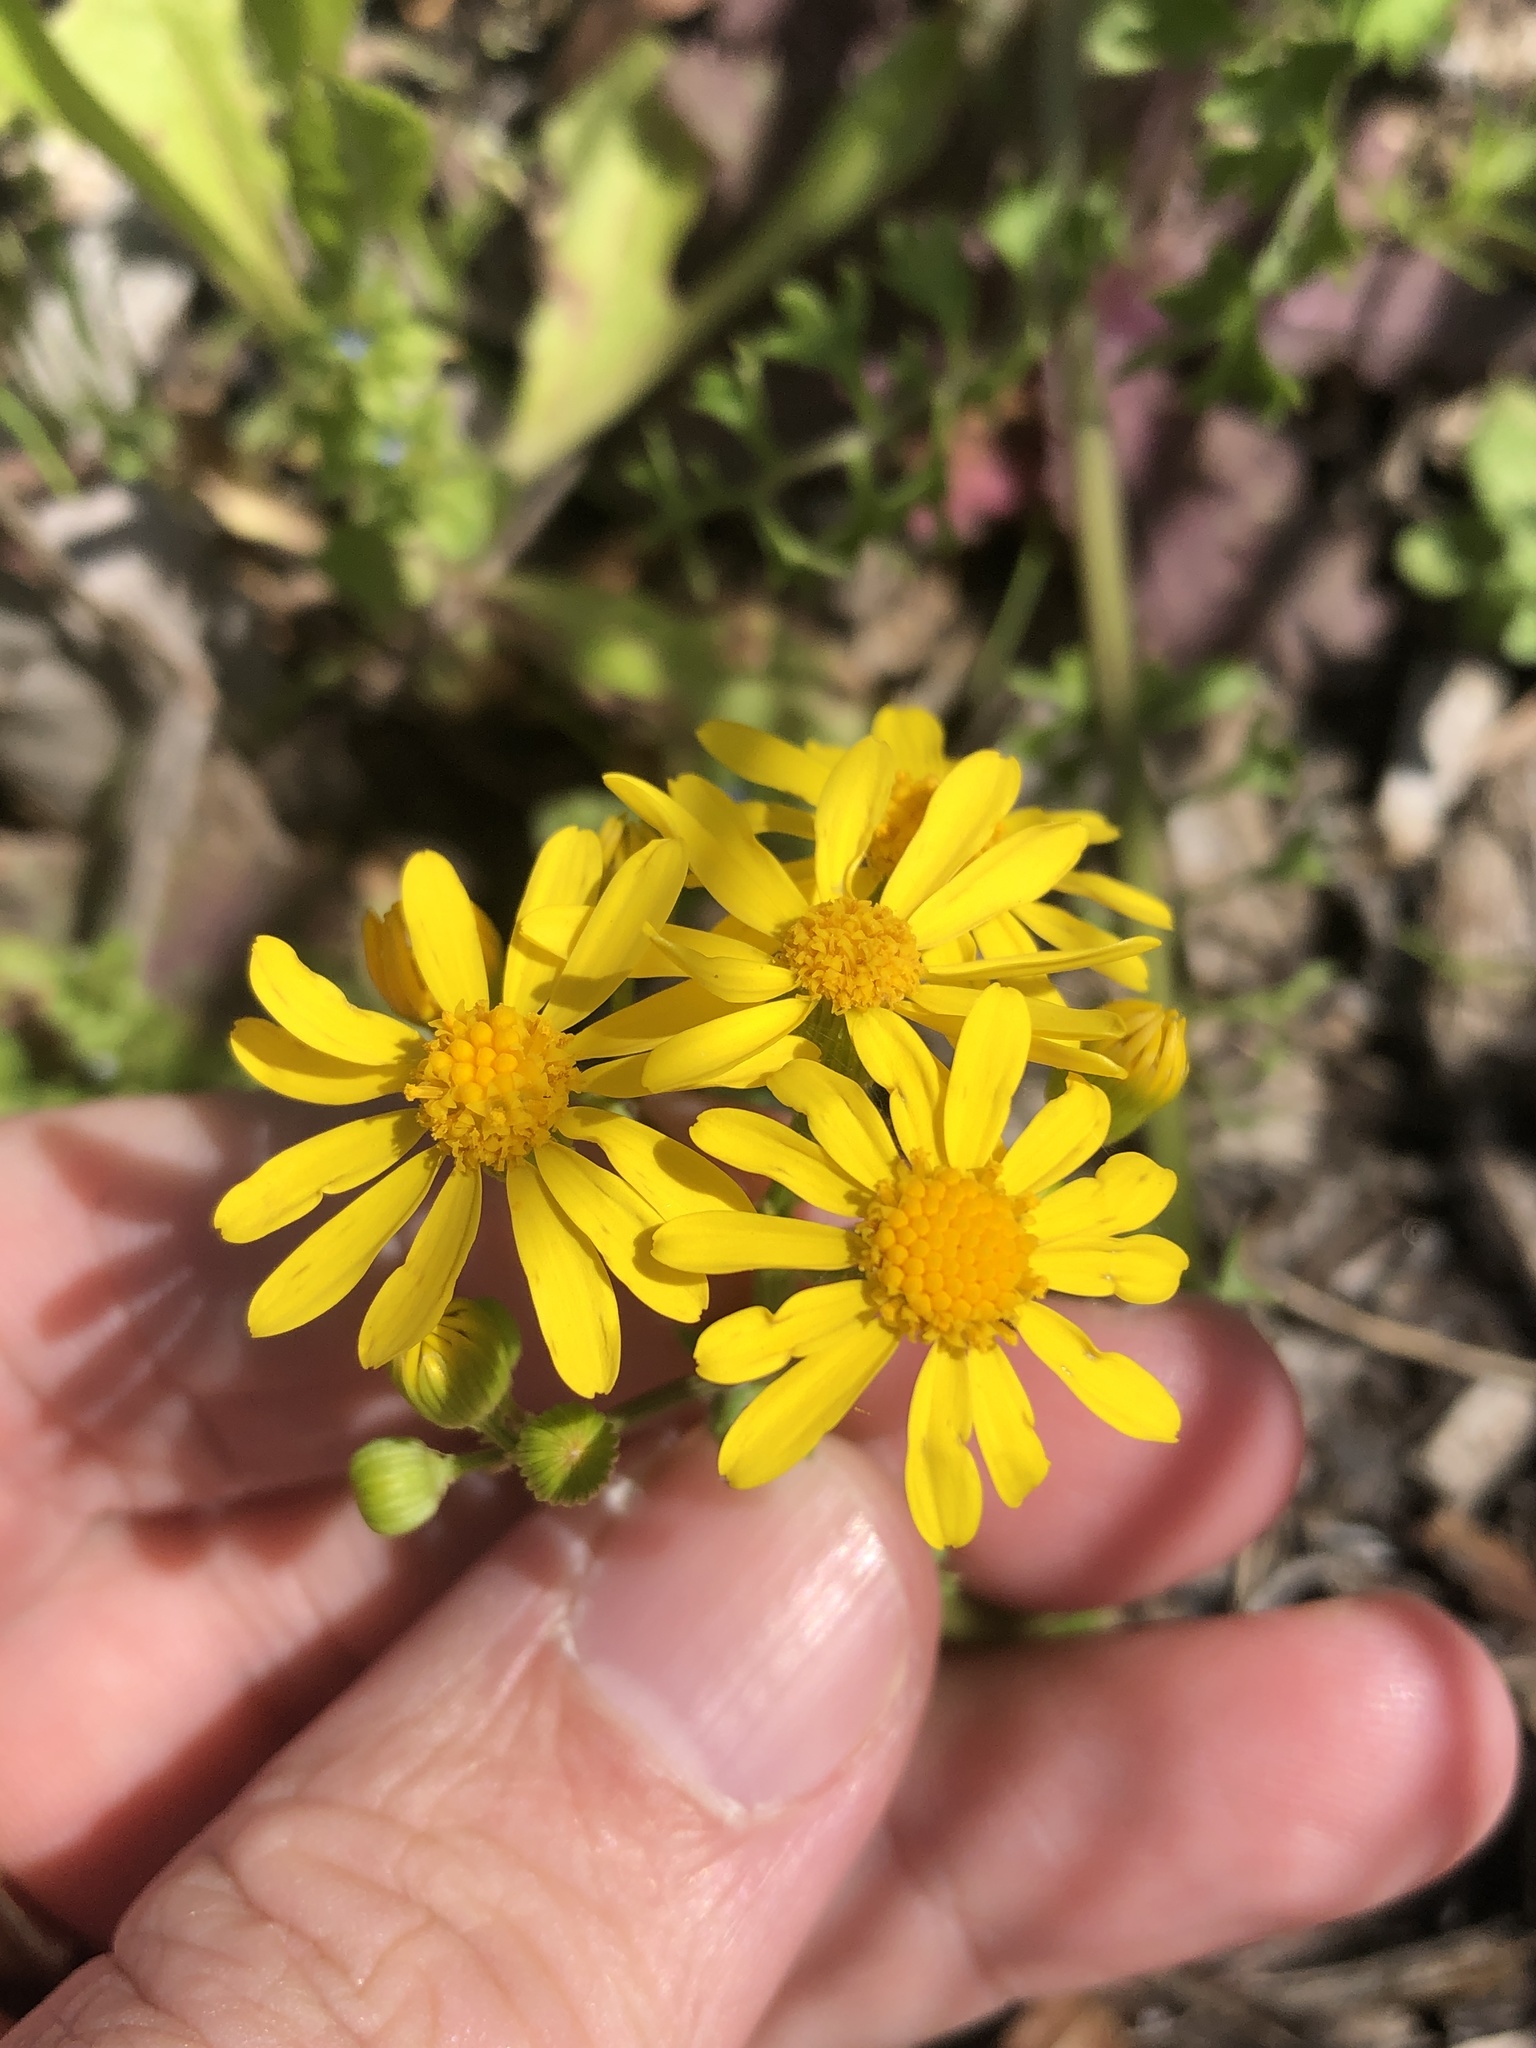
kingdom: Plantae
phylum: Tracheophyta
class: Magnoliopsida
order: Asterales
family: Asteraceae
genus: Packera
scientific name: Packera tampicana
